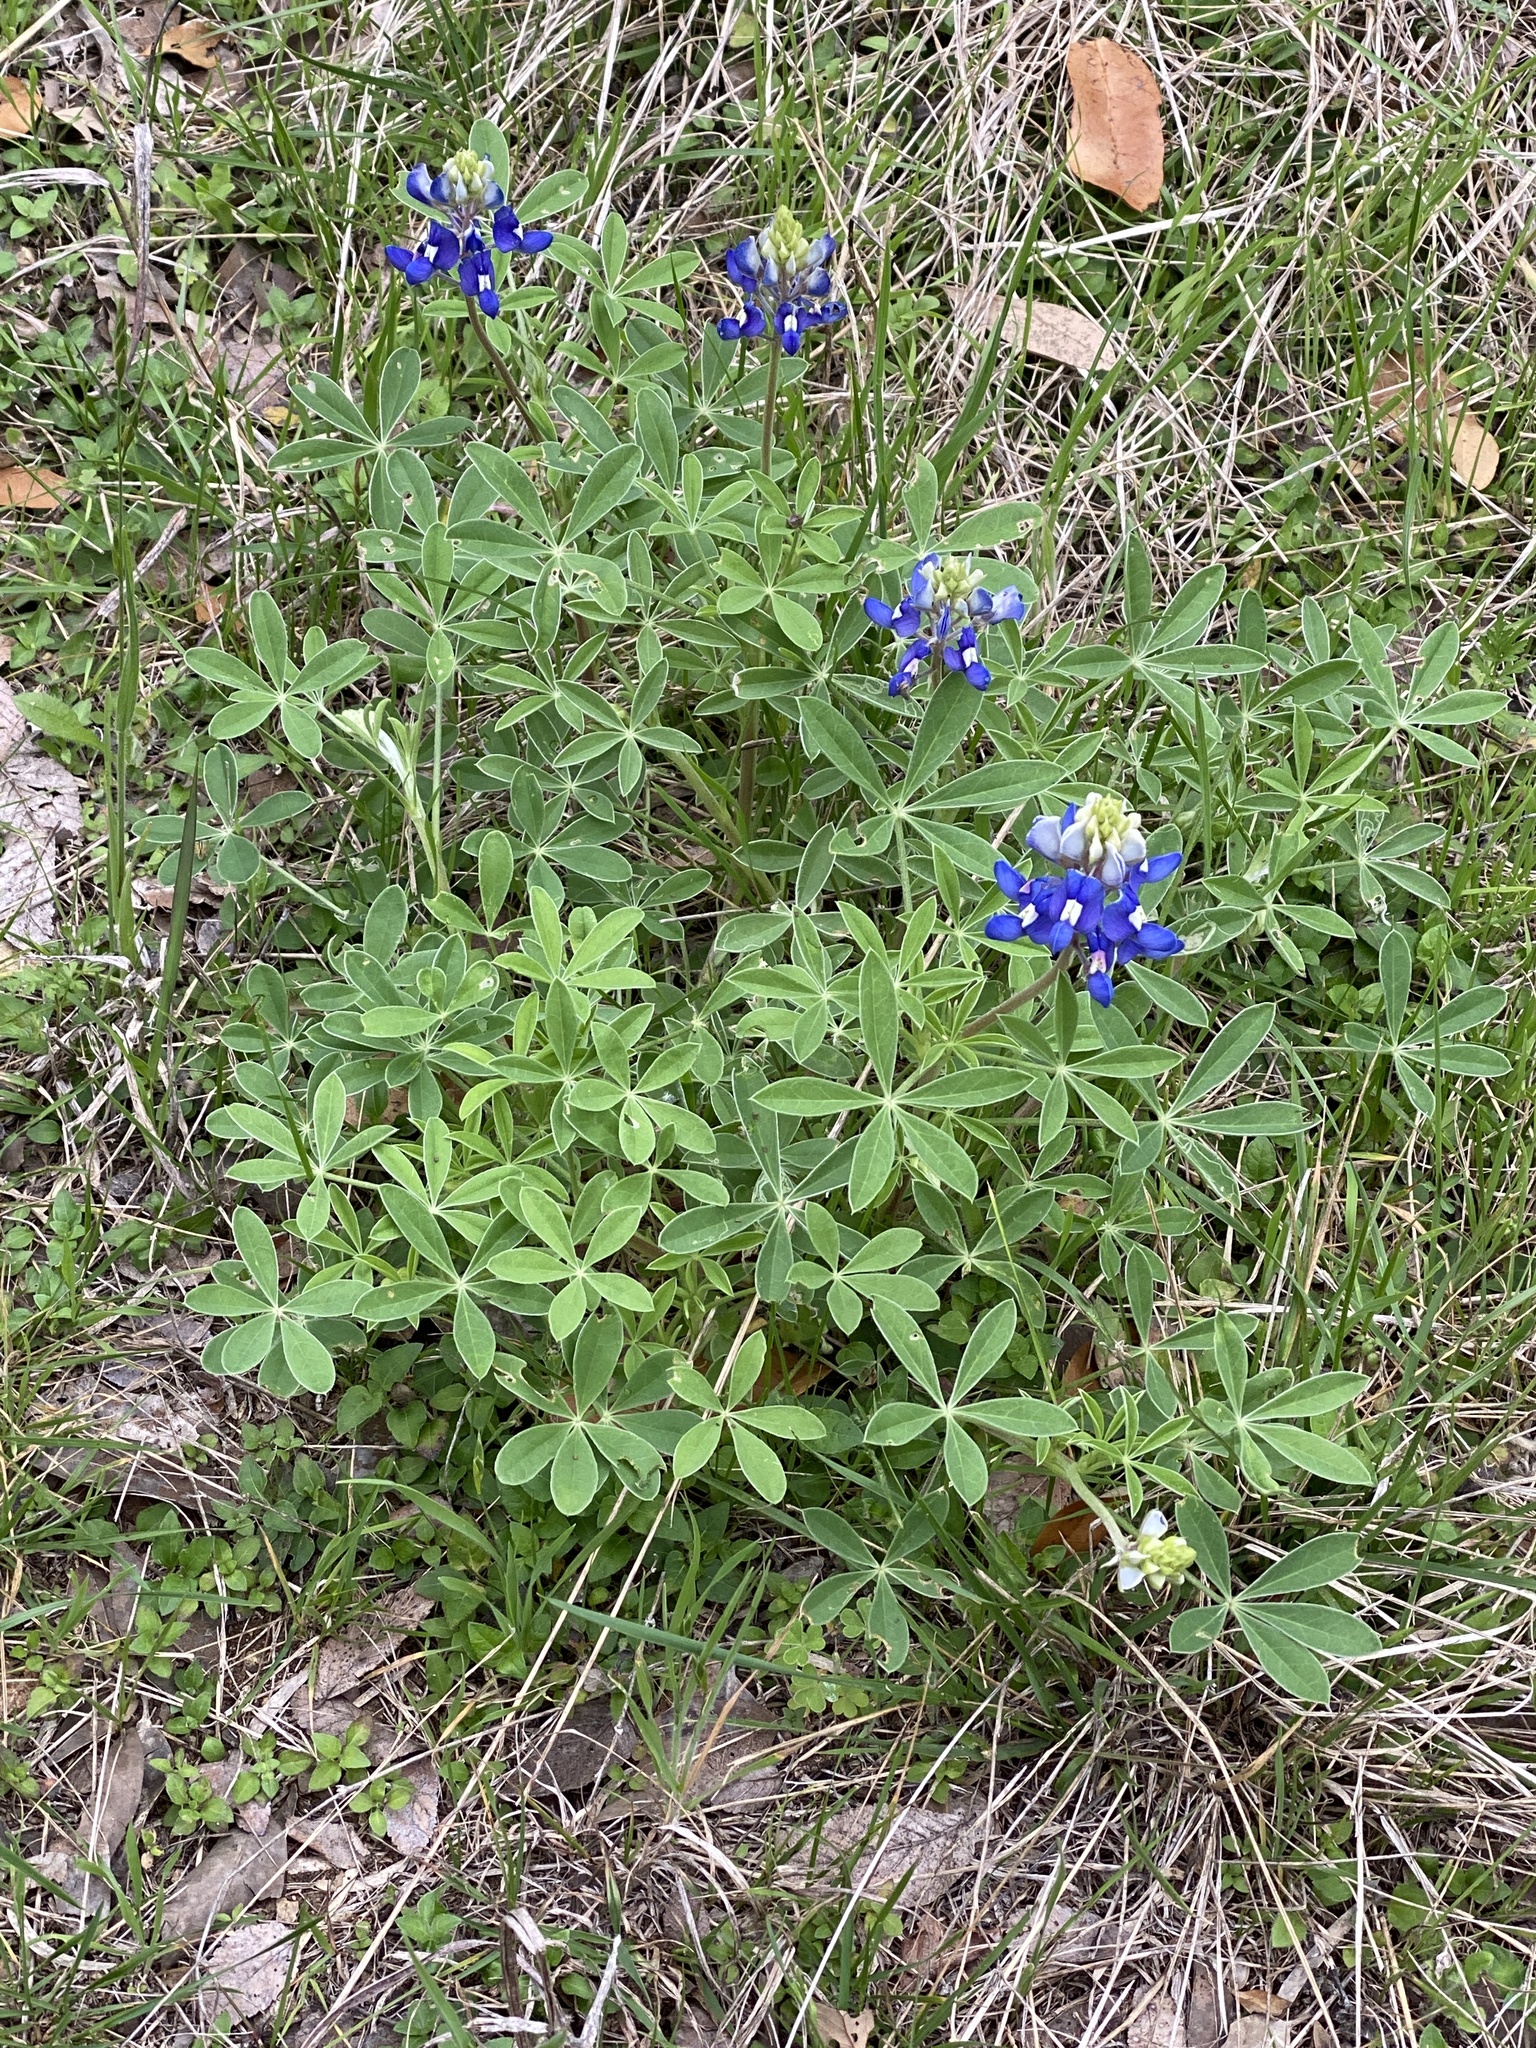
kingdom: Plantae
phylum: Tracheophyta
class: Magnoliopsida
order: Fabales
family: Fabaceae
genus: Lupinus
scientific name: Lupinus texensis
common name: Texas bluebonnet
